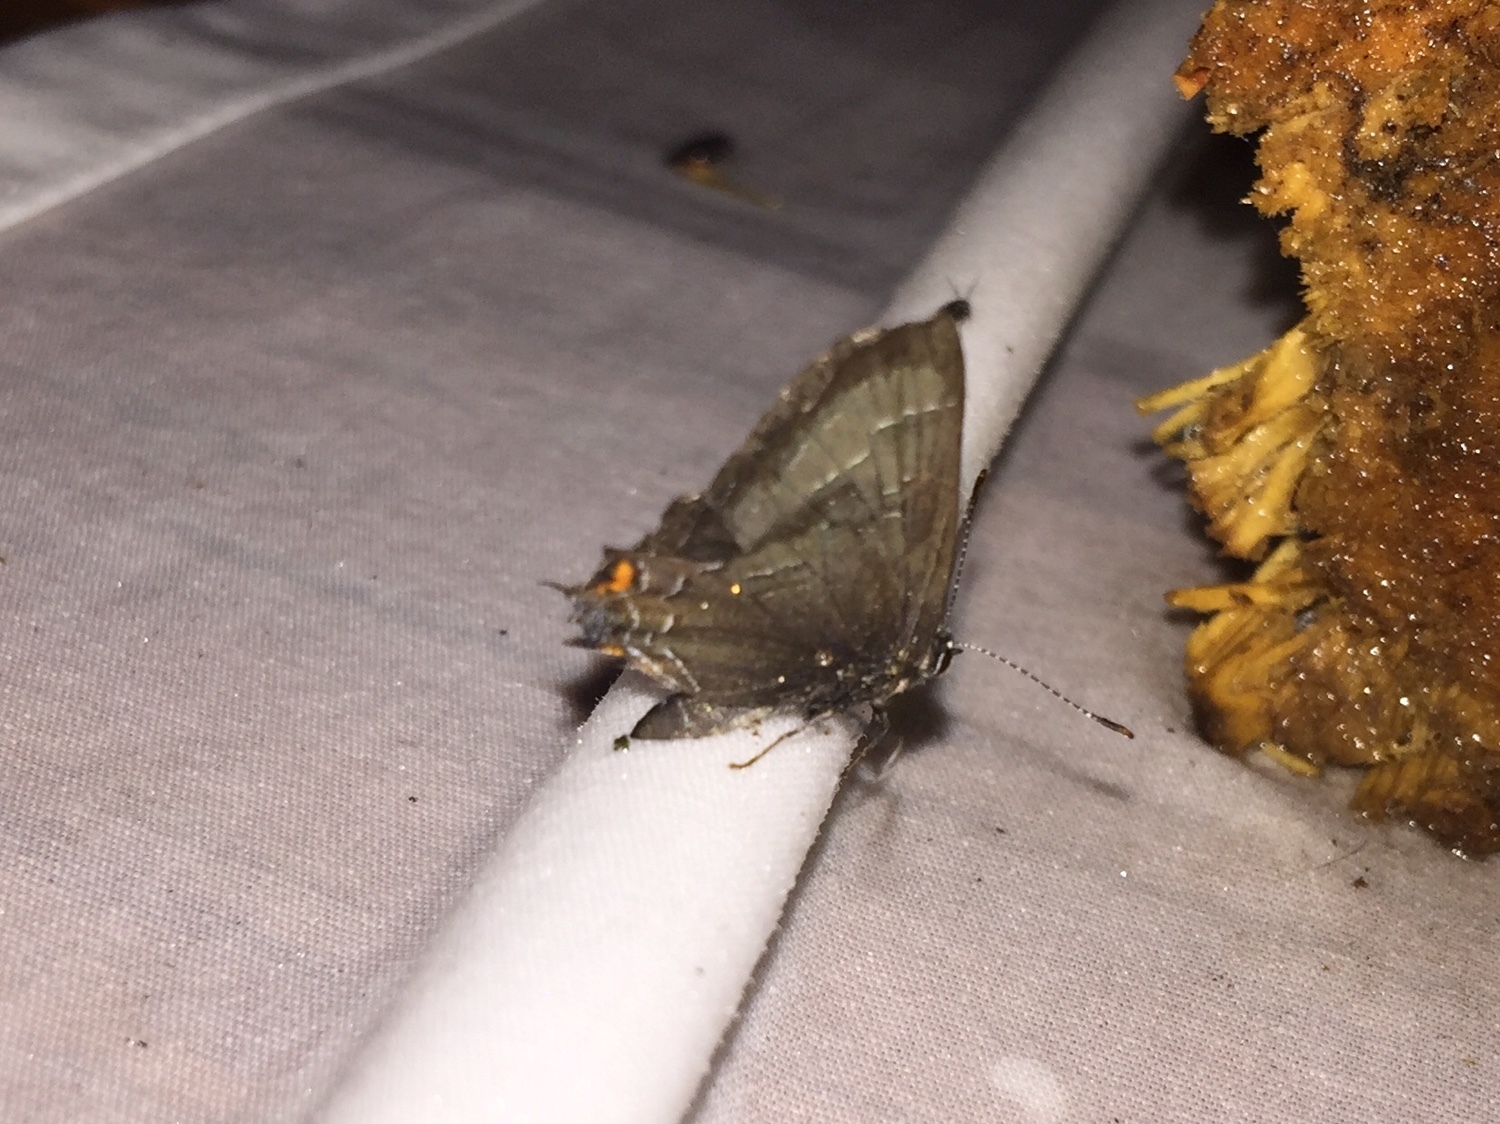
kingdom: Animalia
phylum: Arthropoda
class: Insecta
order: Lepidoptera
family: Lycaenidae
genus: Satyrium
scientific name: Satyrium calanus
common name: Banded hairstreak
